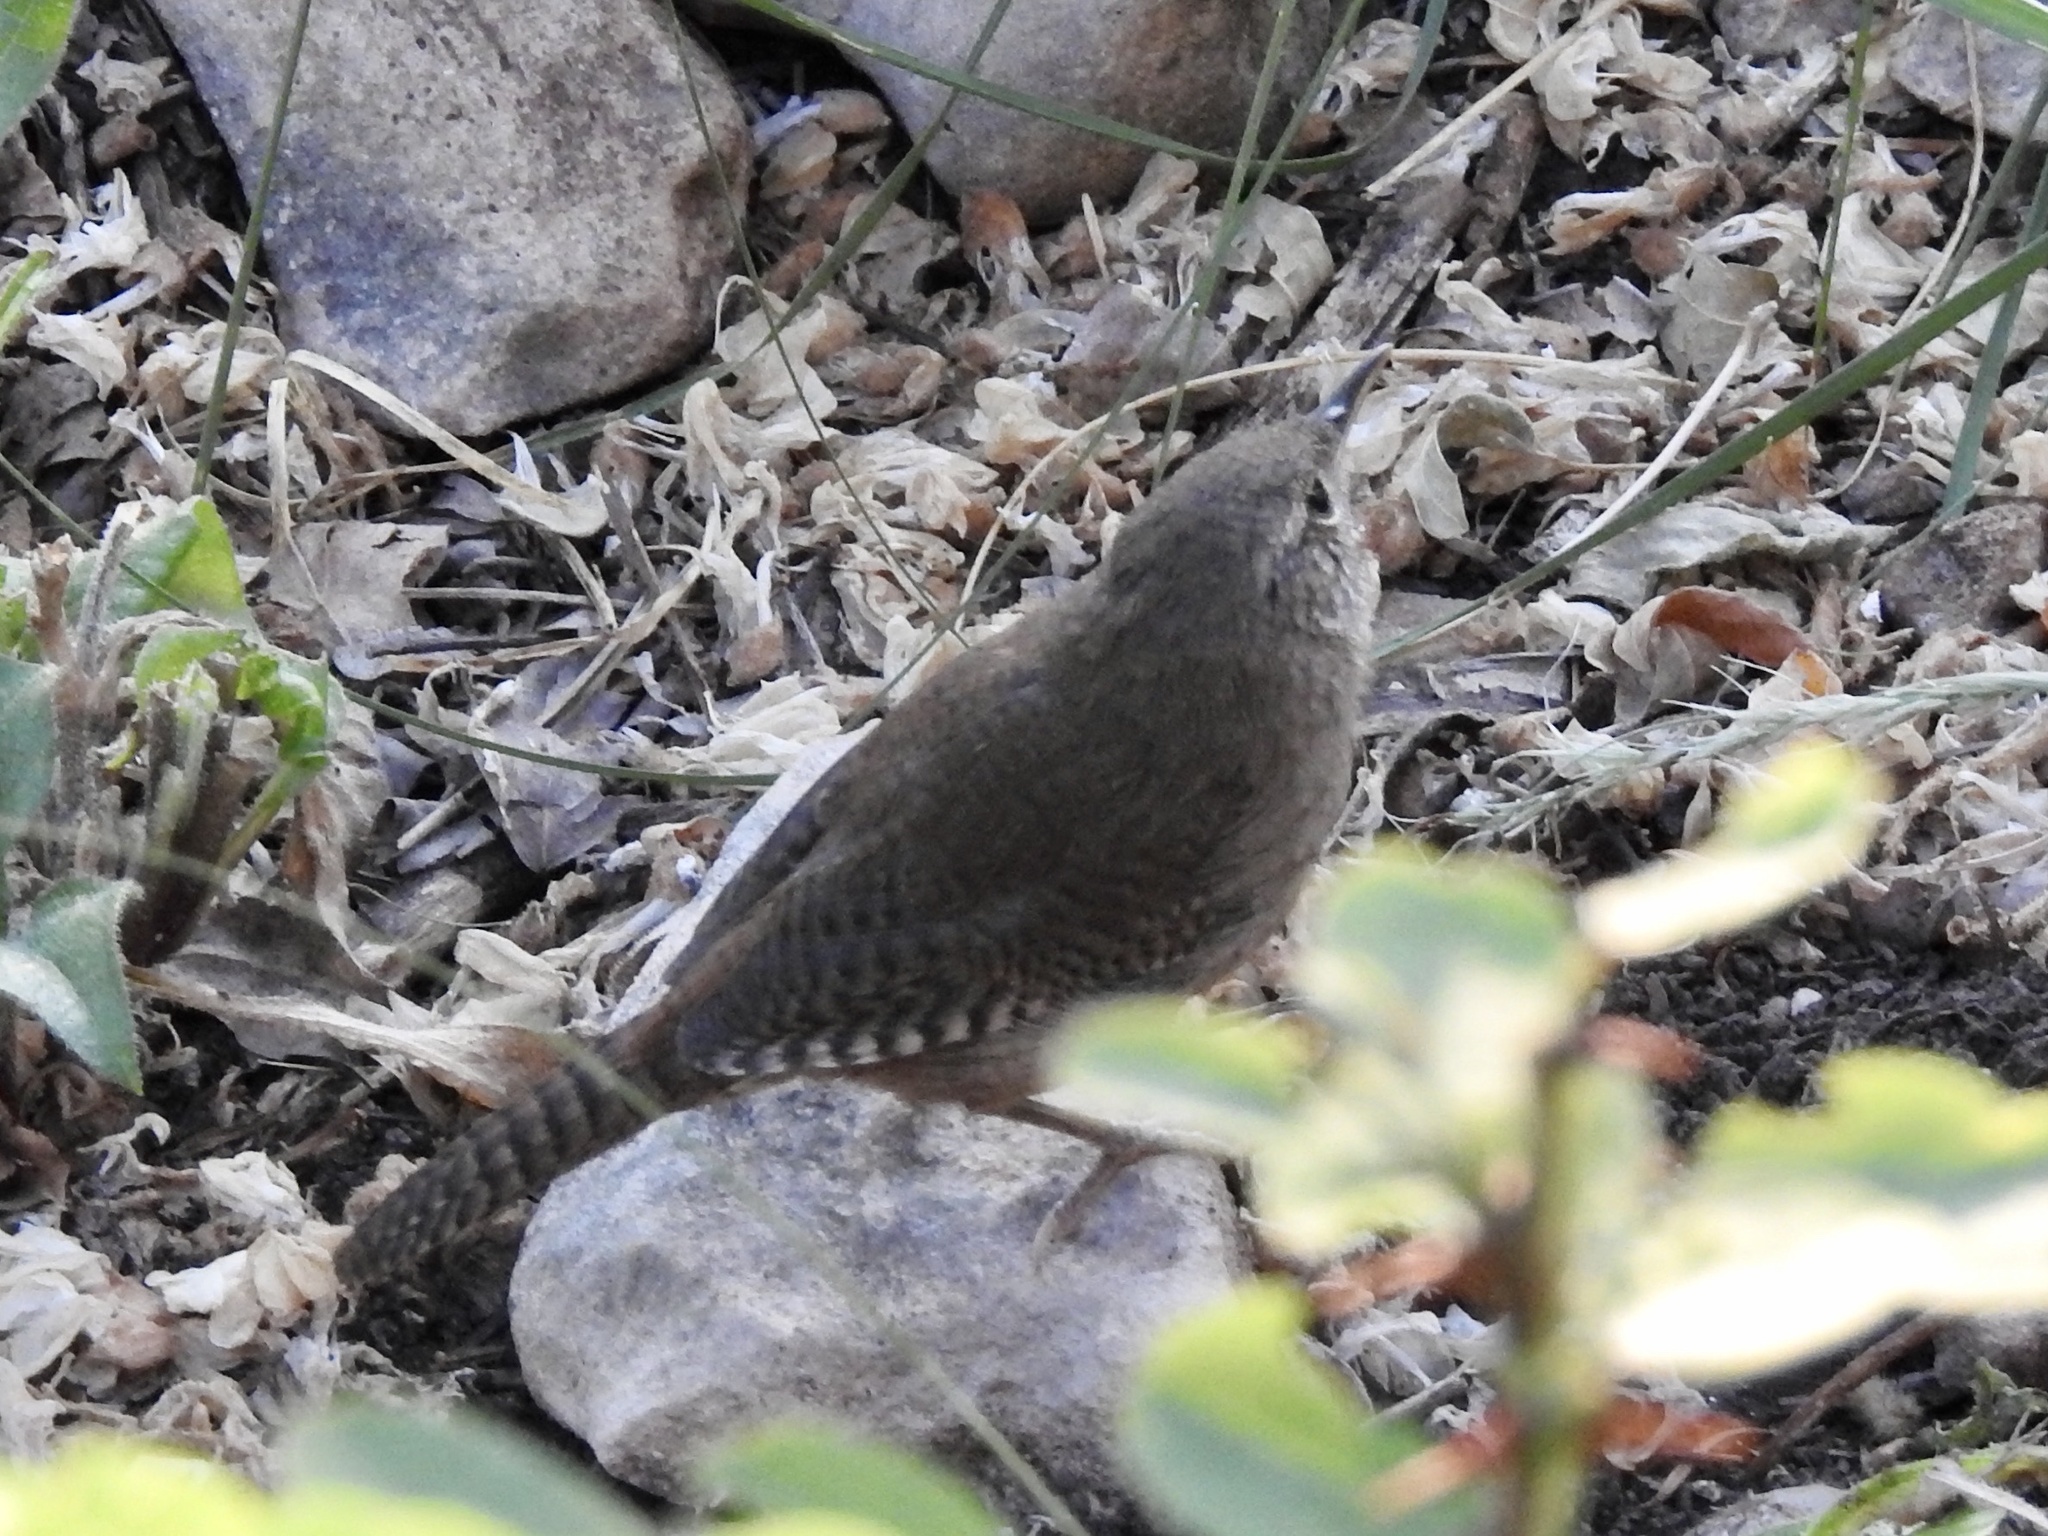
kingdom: Animalia
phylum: Chordata
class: Aves
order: Passeriformes
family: Troglodytidae
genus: Troglodytes
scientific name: Troglodytes aedon
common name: House wren
